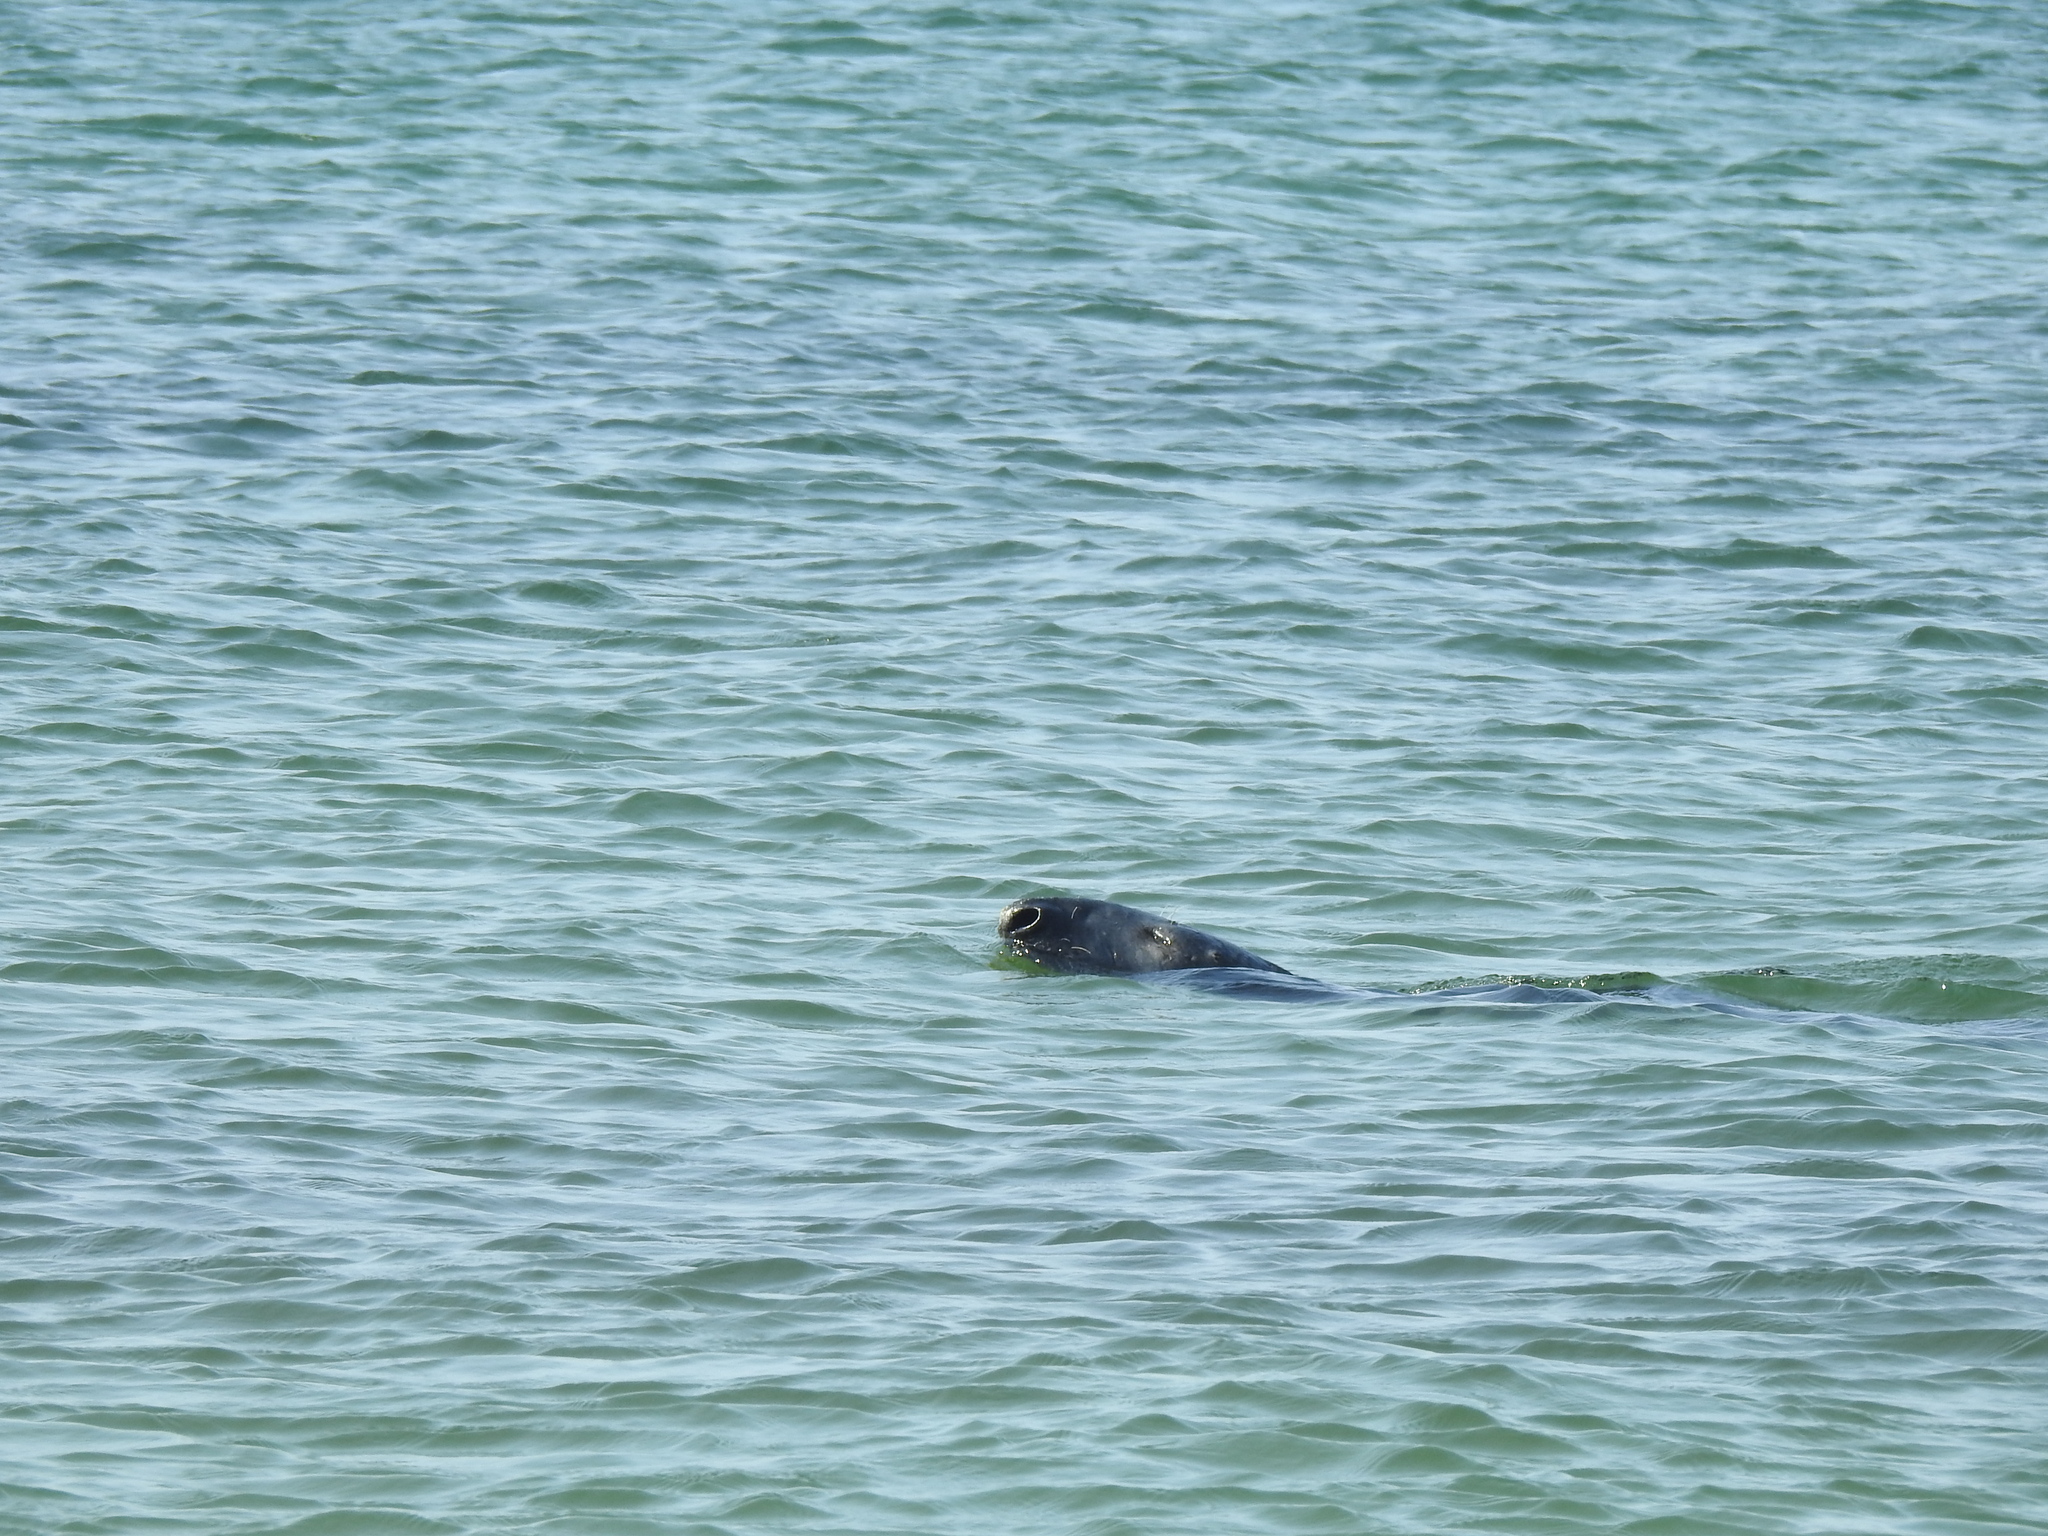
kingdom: Animalia
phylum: Chordata
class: Mammalia
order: Carnivora
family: Phocidae
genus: Halichoerus
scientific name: Halichoerus grypus
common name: Grey seal
